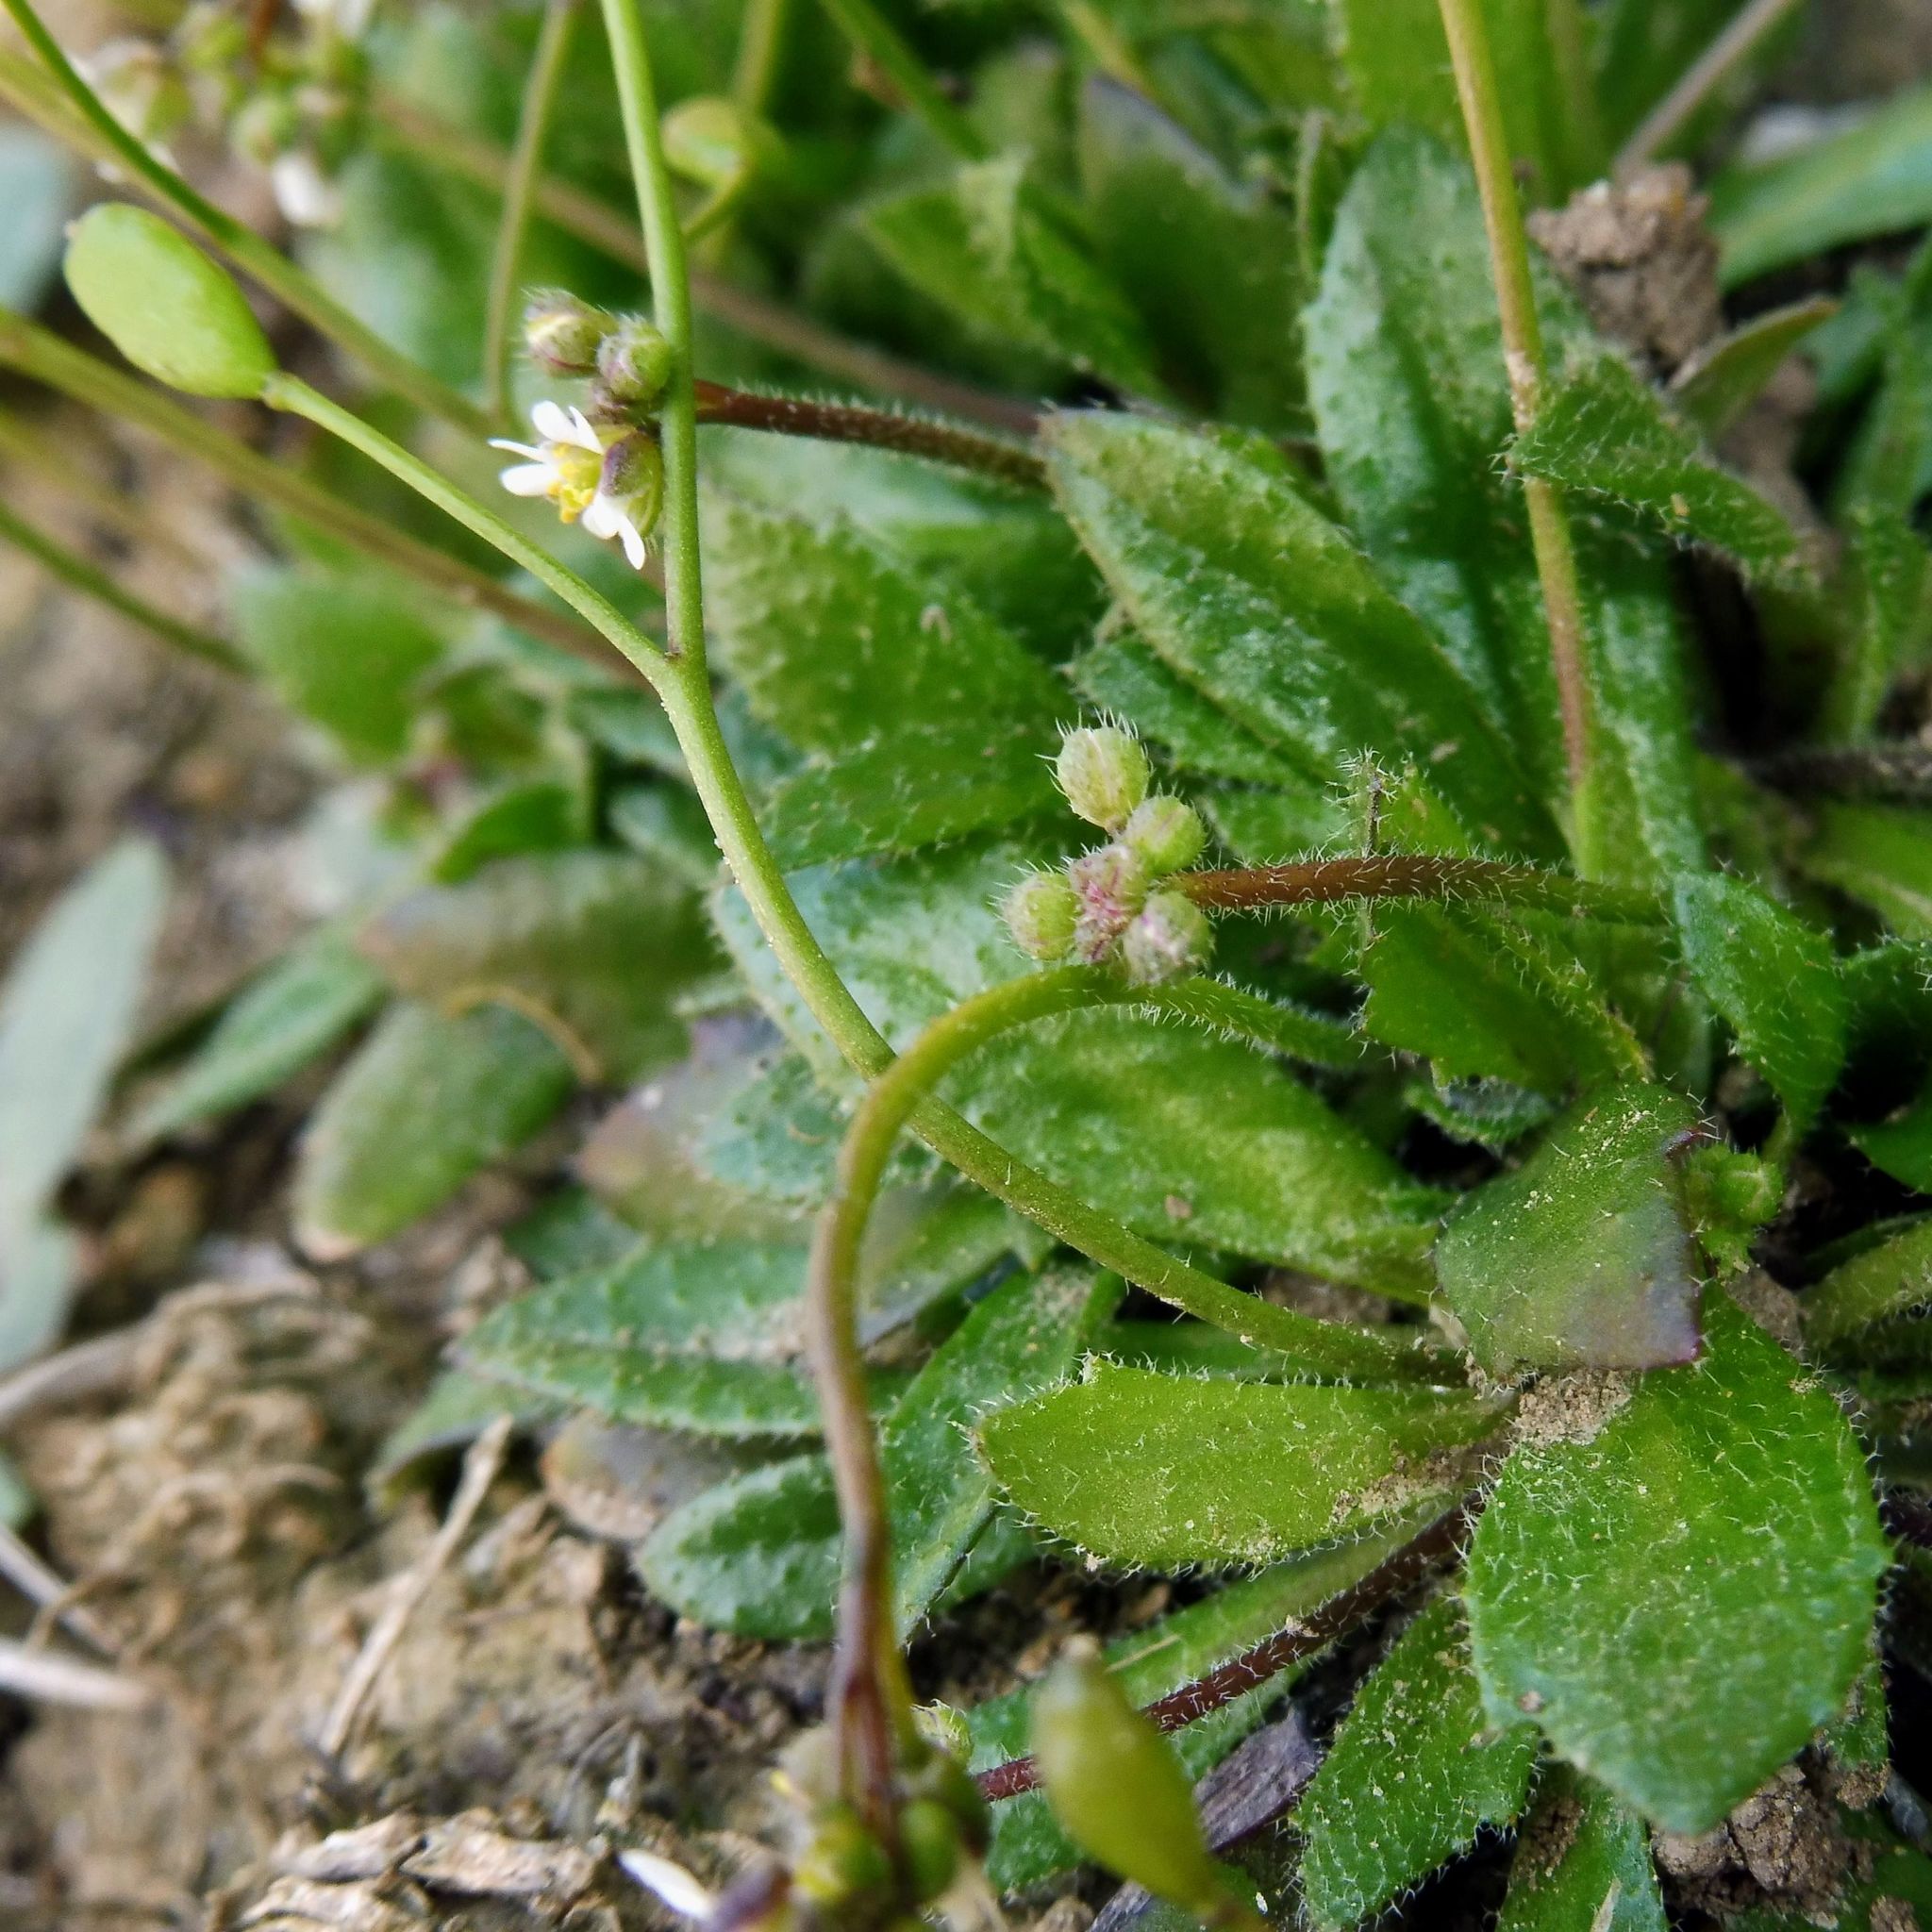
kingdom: Plantae
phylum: Tracheophyta
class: Magnoliopsida
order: Brassicales
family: Brassicaceae
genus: Draba
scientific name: Draba verna
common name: Spring draba
